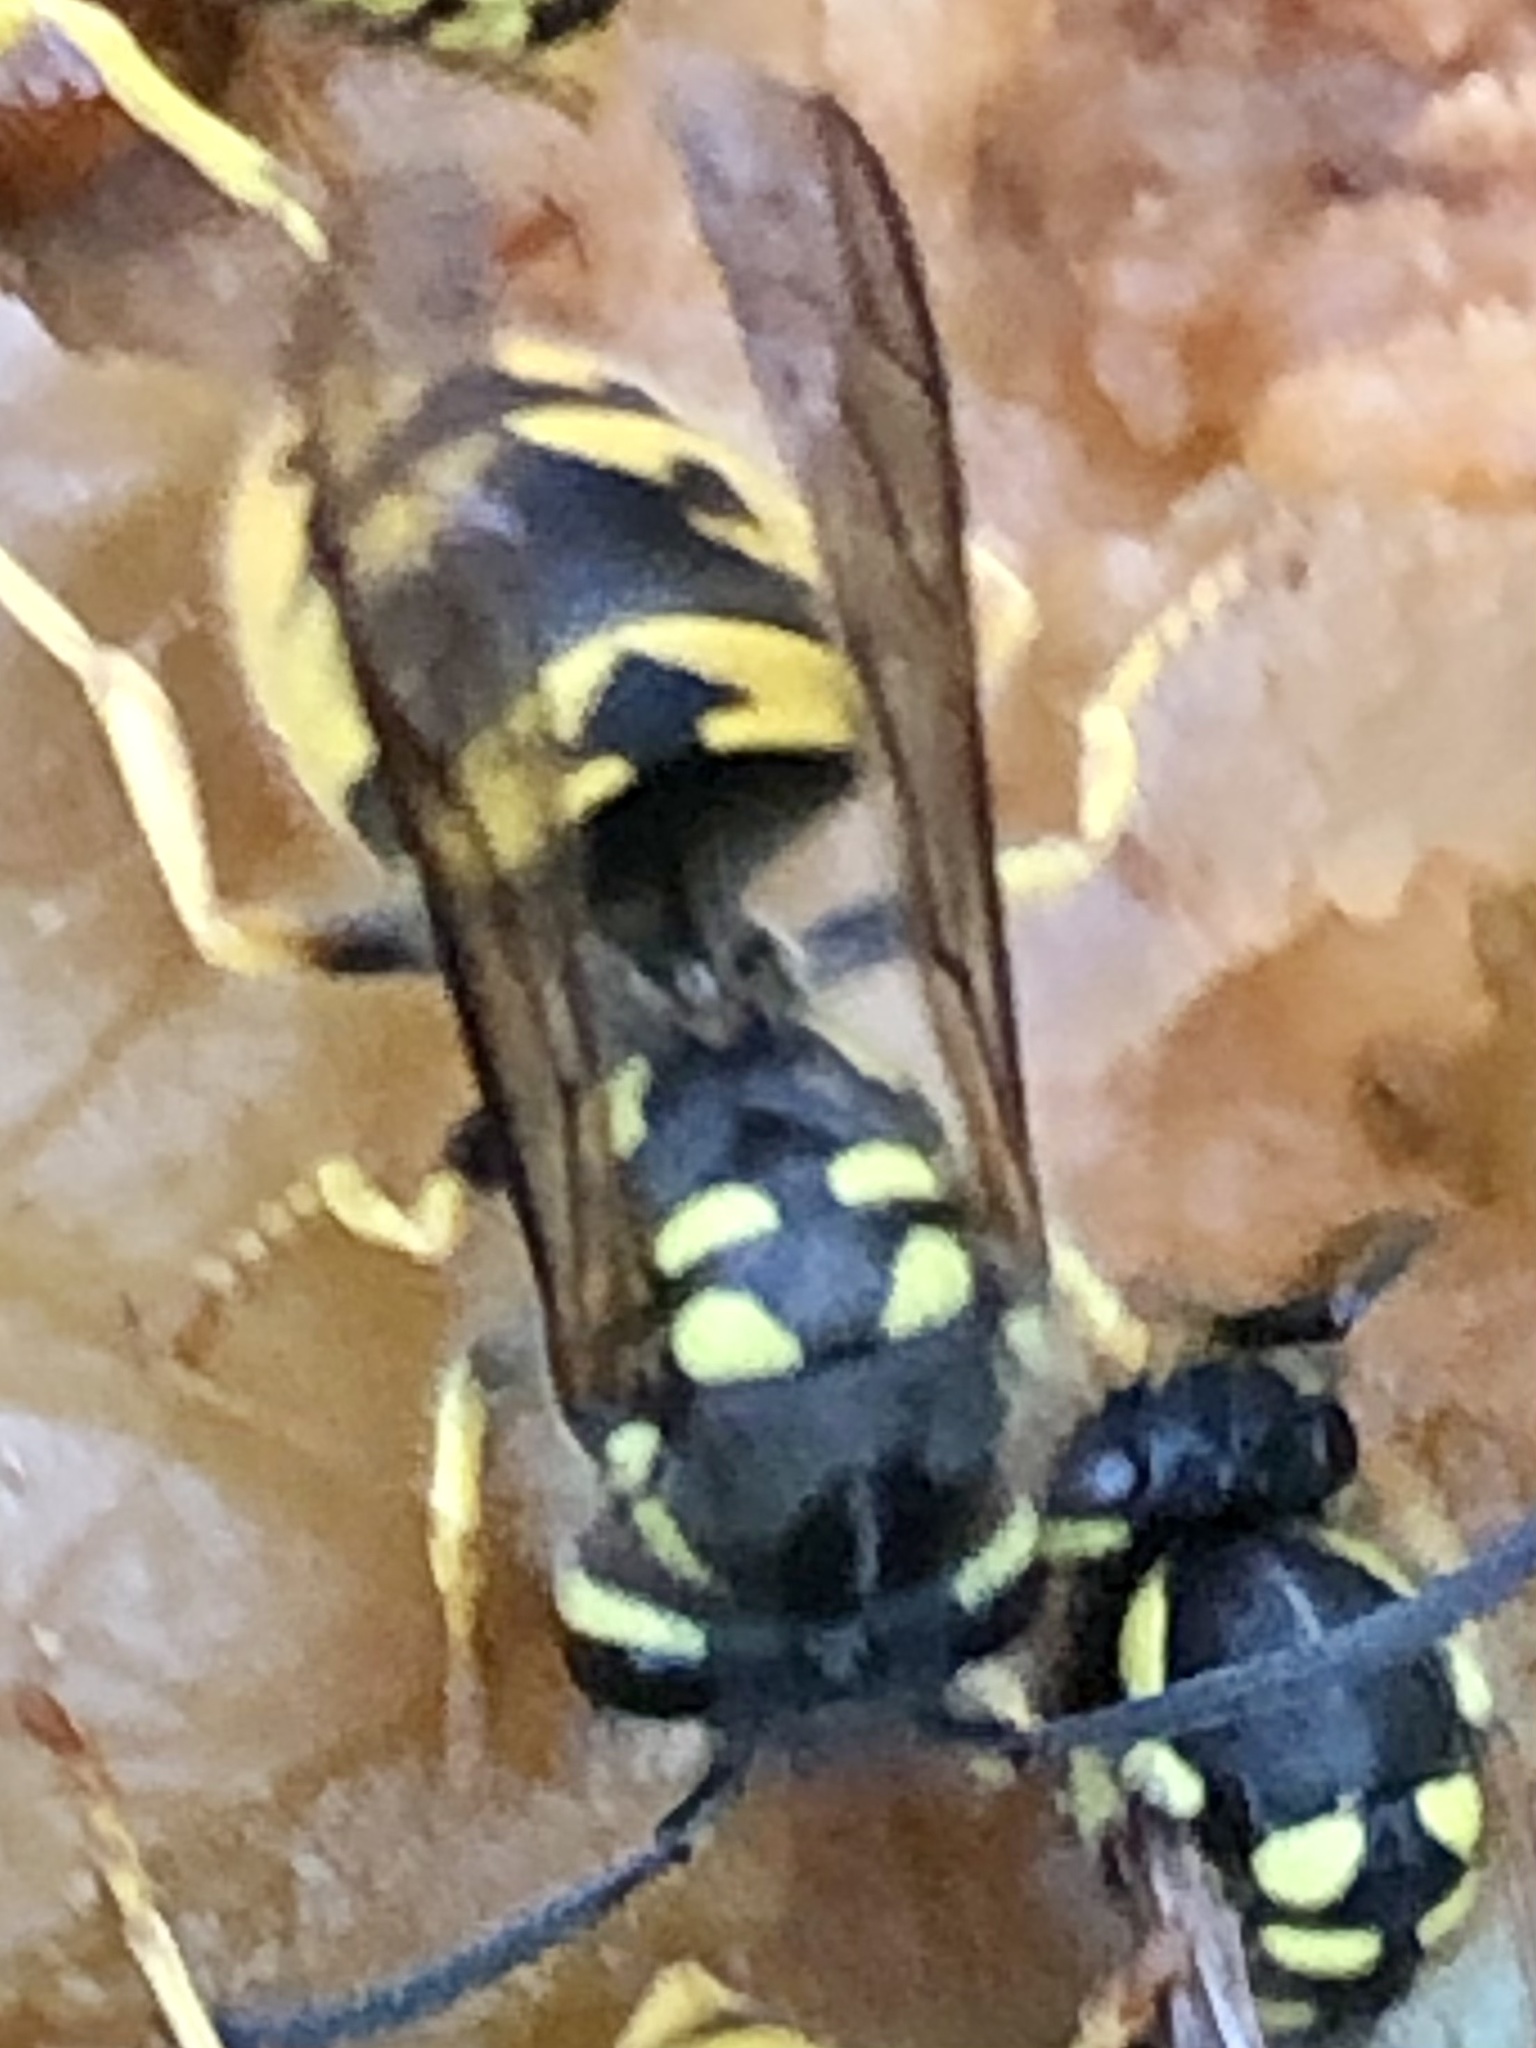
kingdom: Animalia
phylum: Arthropoda
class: Insecta
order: Hymenoptera
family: Vespidae
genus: Vespula
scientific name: Vespula germanica
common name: German wasp
